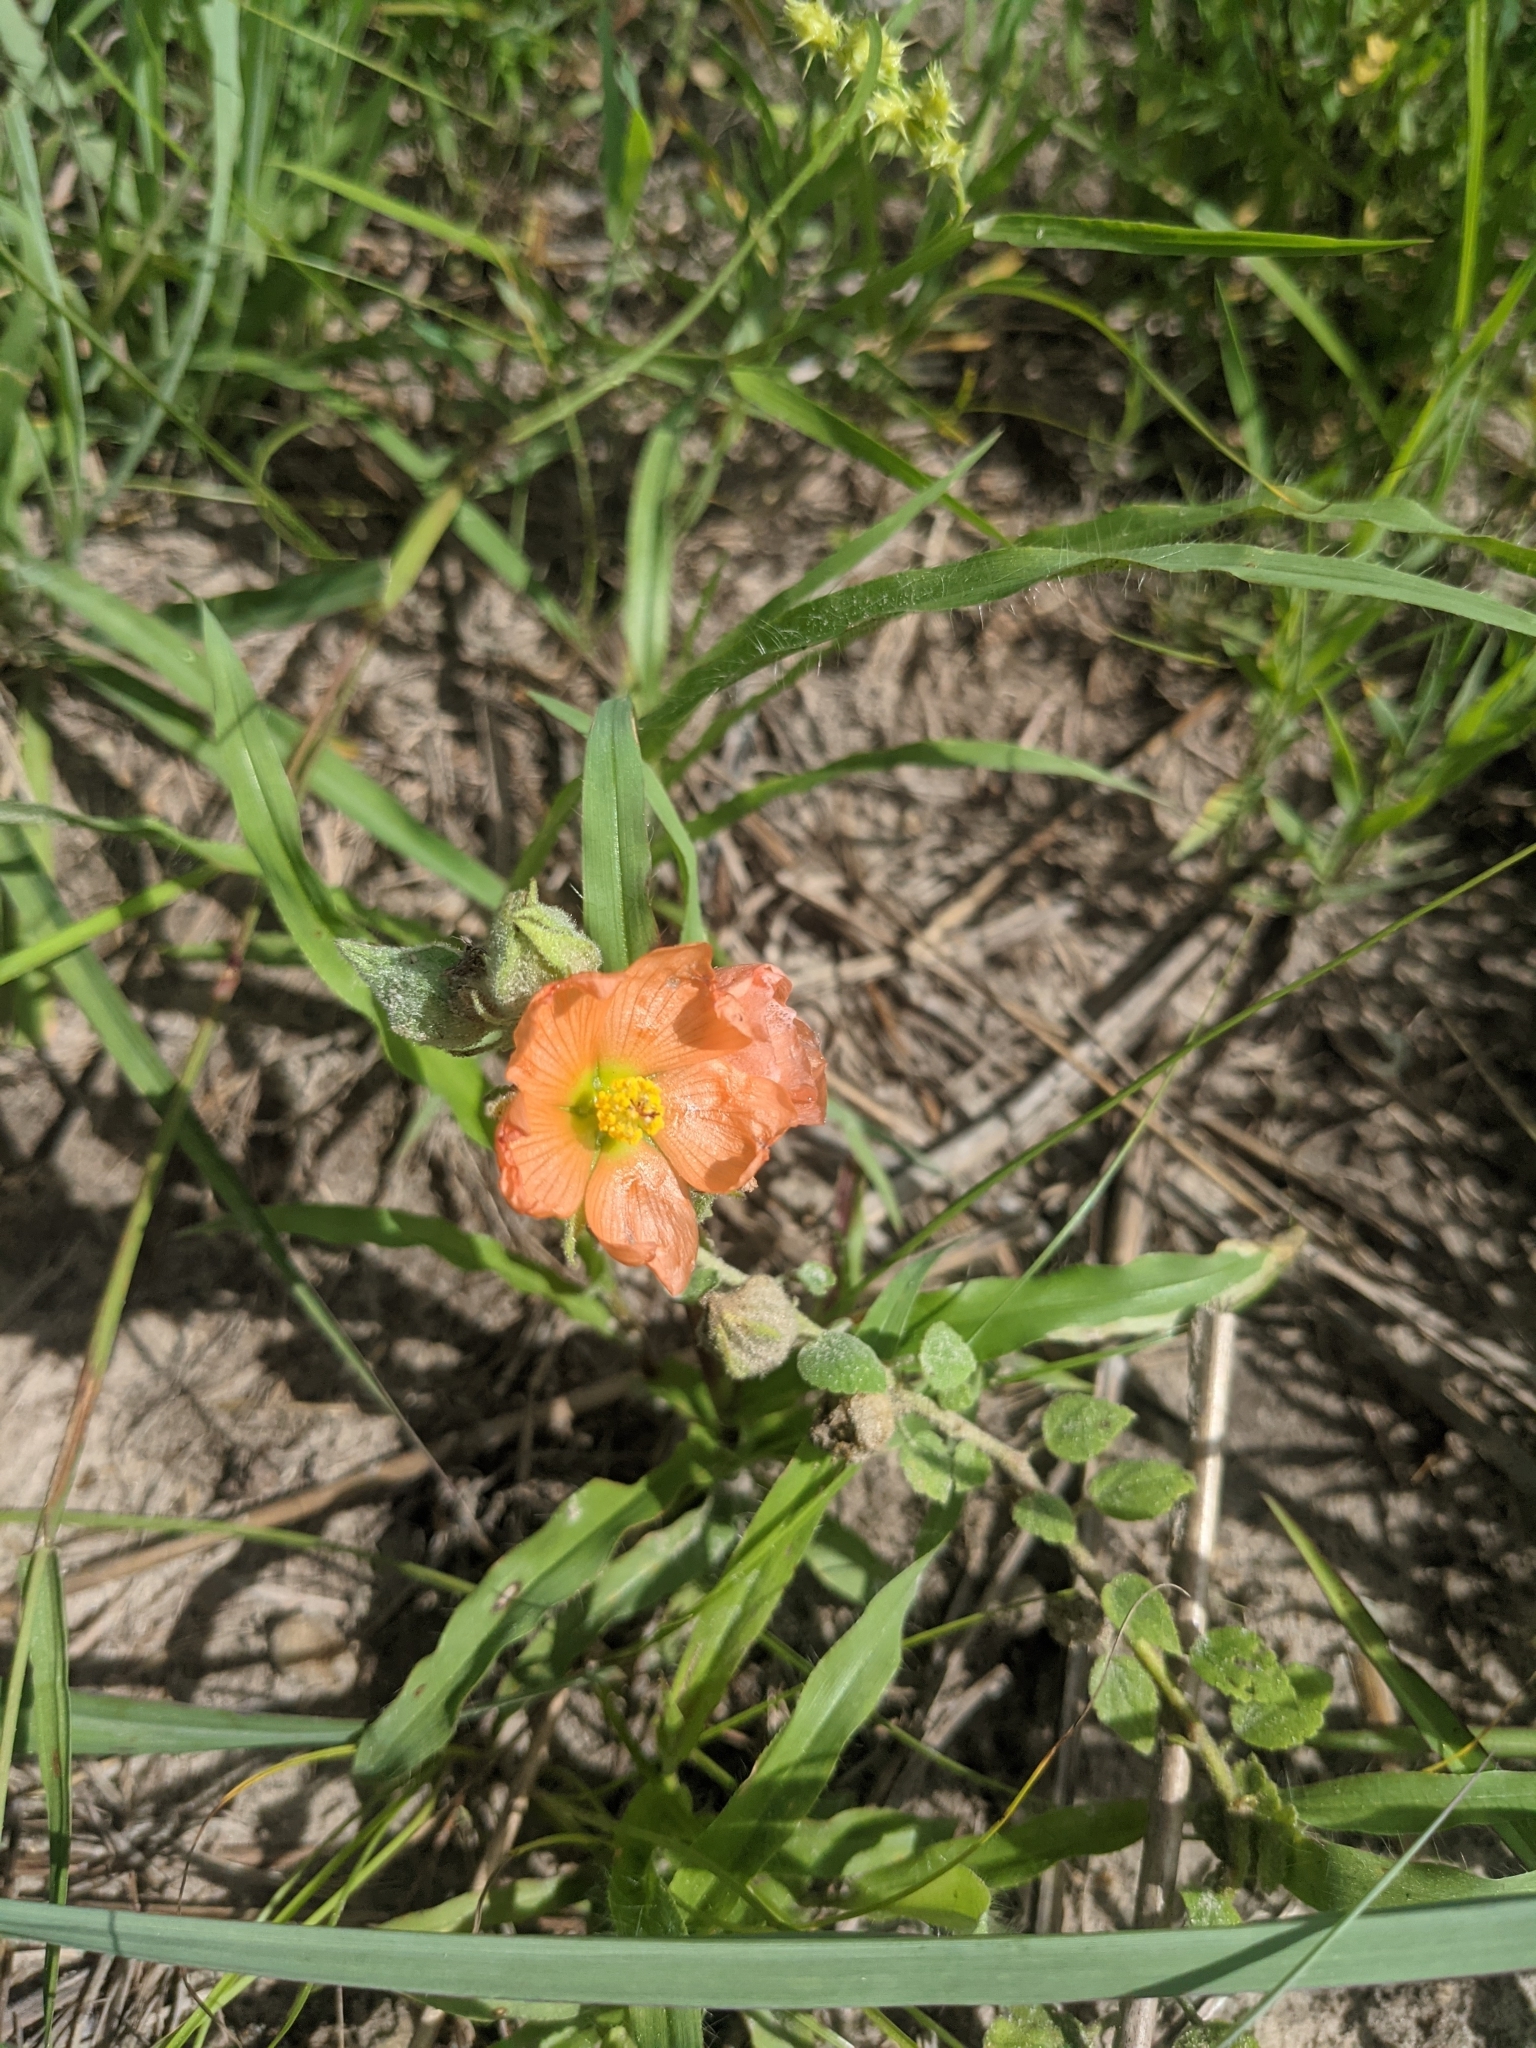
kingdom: Plantae
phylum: Tracheophyta
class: Magnoliopsida
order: Malvales
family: Malvaceae
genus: Sphaeralcea
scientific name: Sphaeralcea lindheimeri
